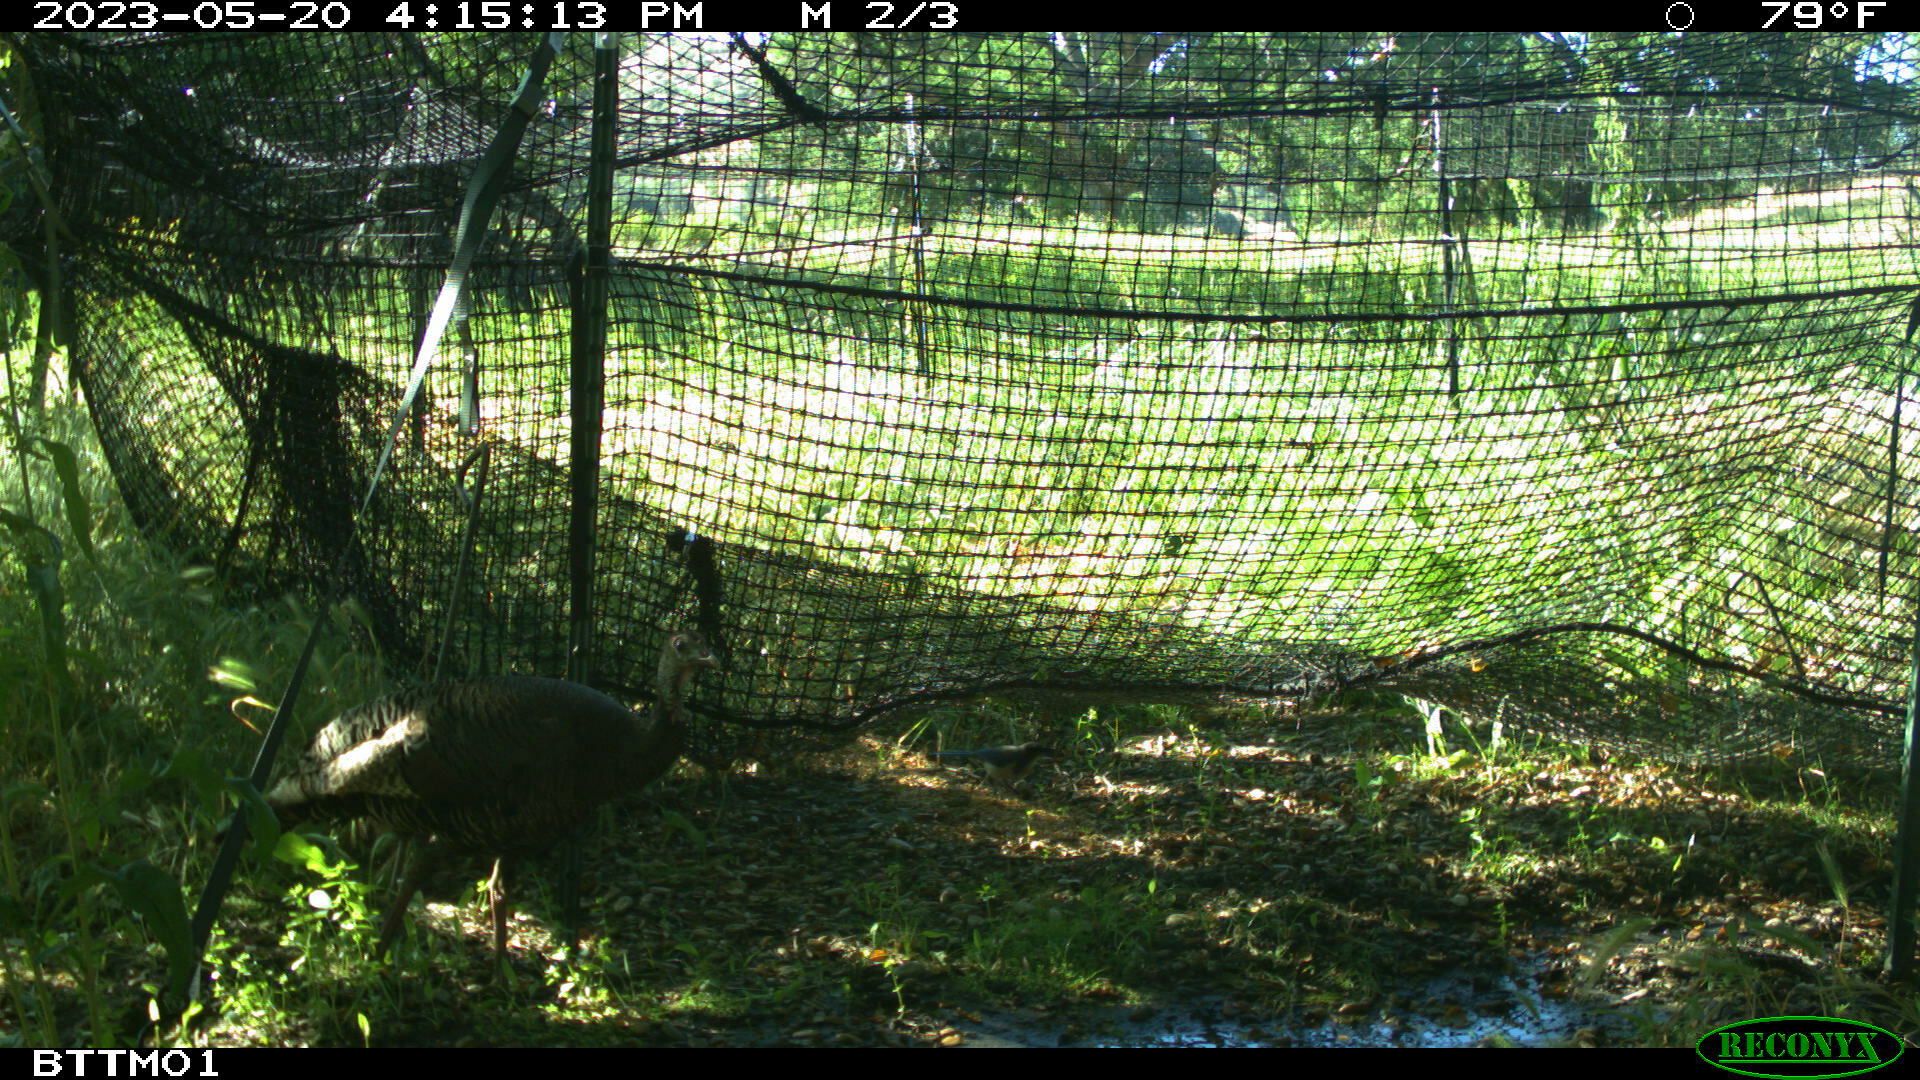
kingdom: Animalia
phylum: Chordata
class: Aves
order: Galliformes
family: Phasianidae
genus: Meleagris
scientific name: Meleagris gallopavo
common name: Wild turkey
